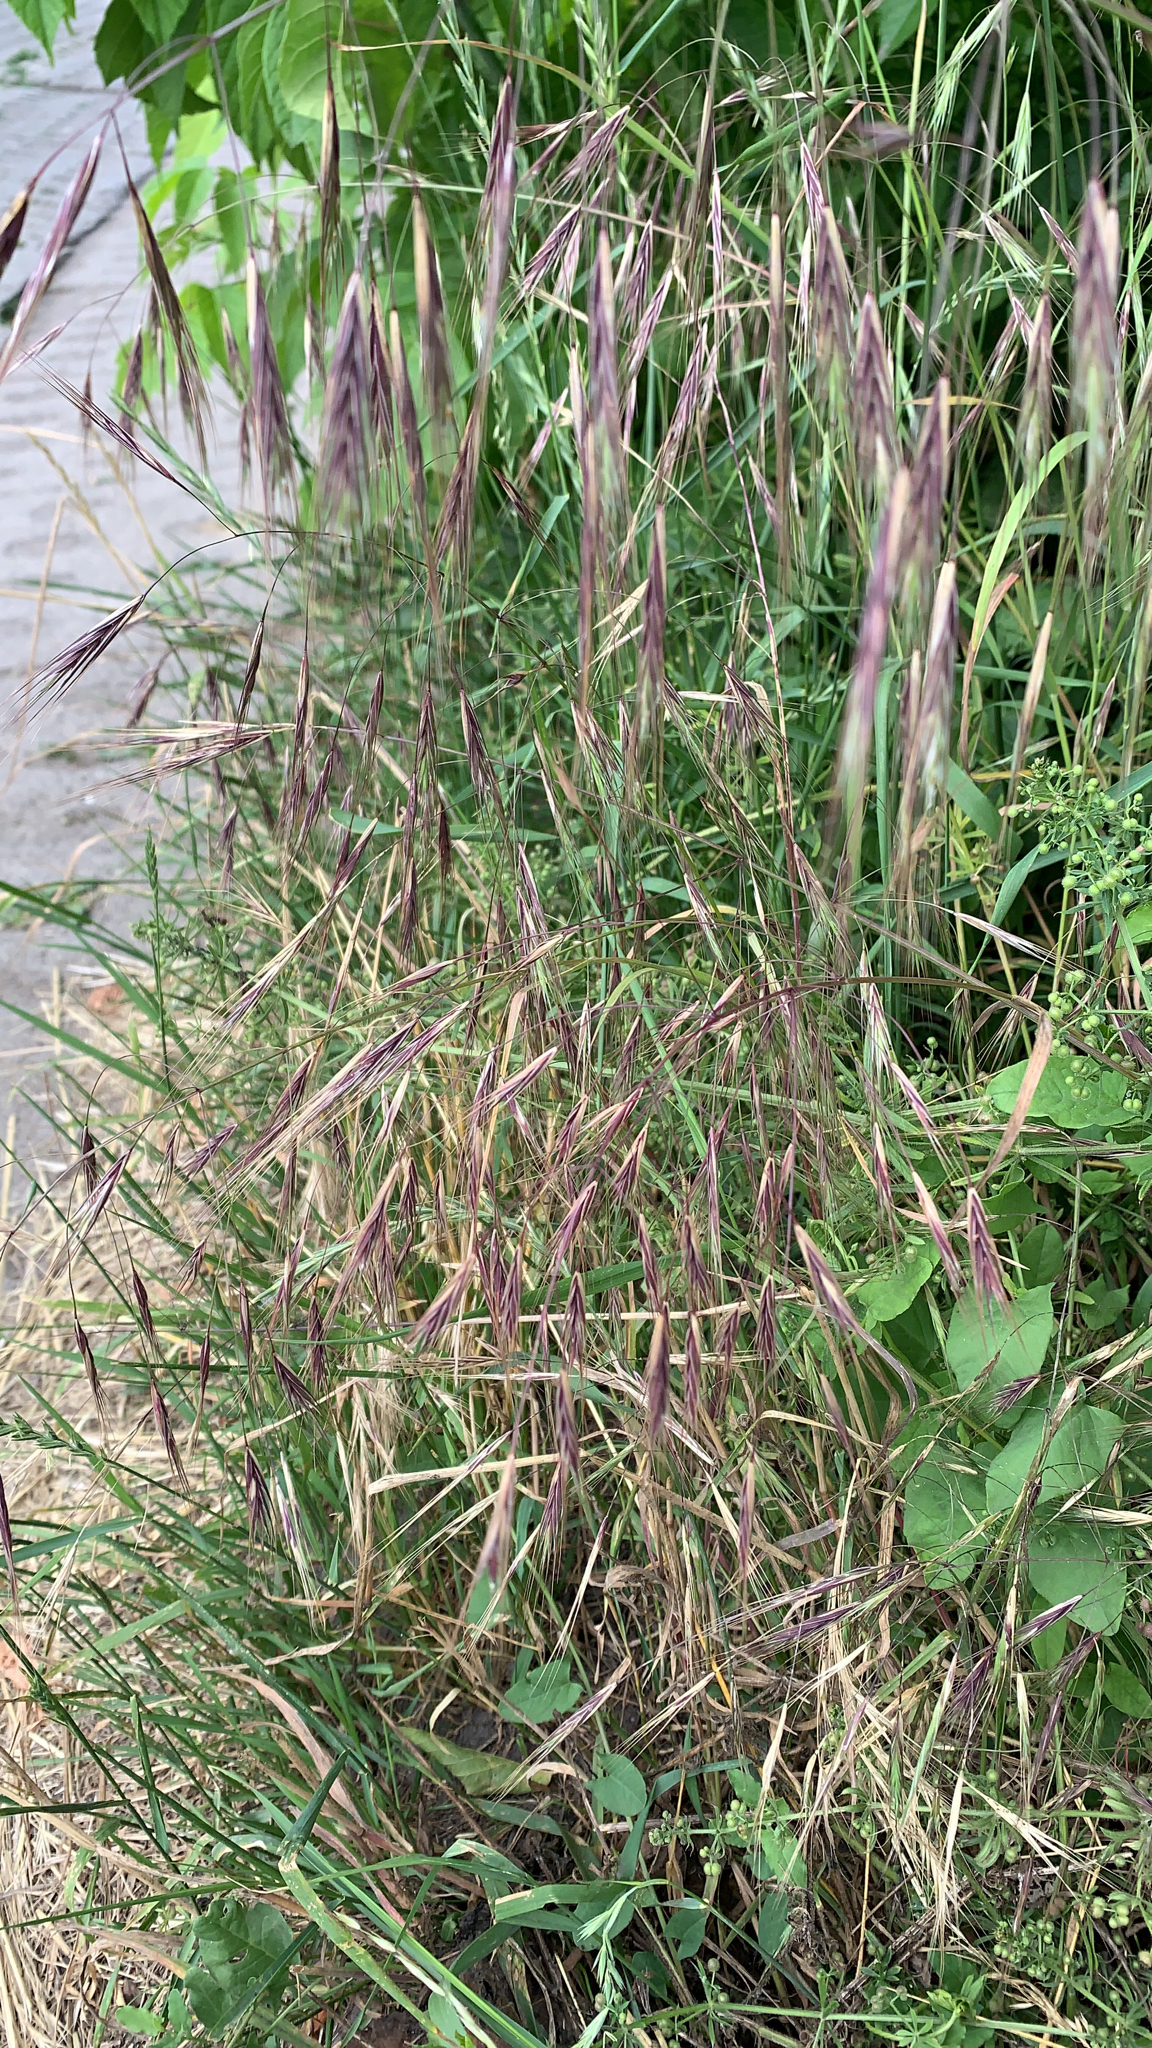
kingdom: Plantae
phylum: Tracheophyta
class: Liliopsida
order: Poales
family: Poaceae
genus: Bromus
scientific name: Bromus sterilis
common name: Poverty brome
